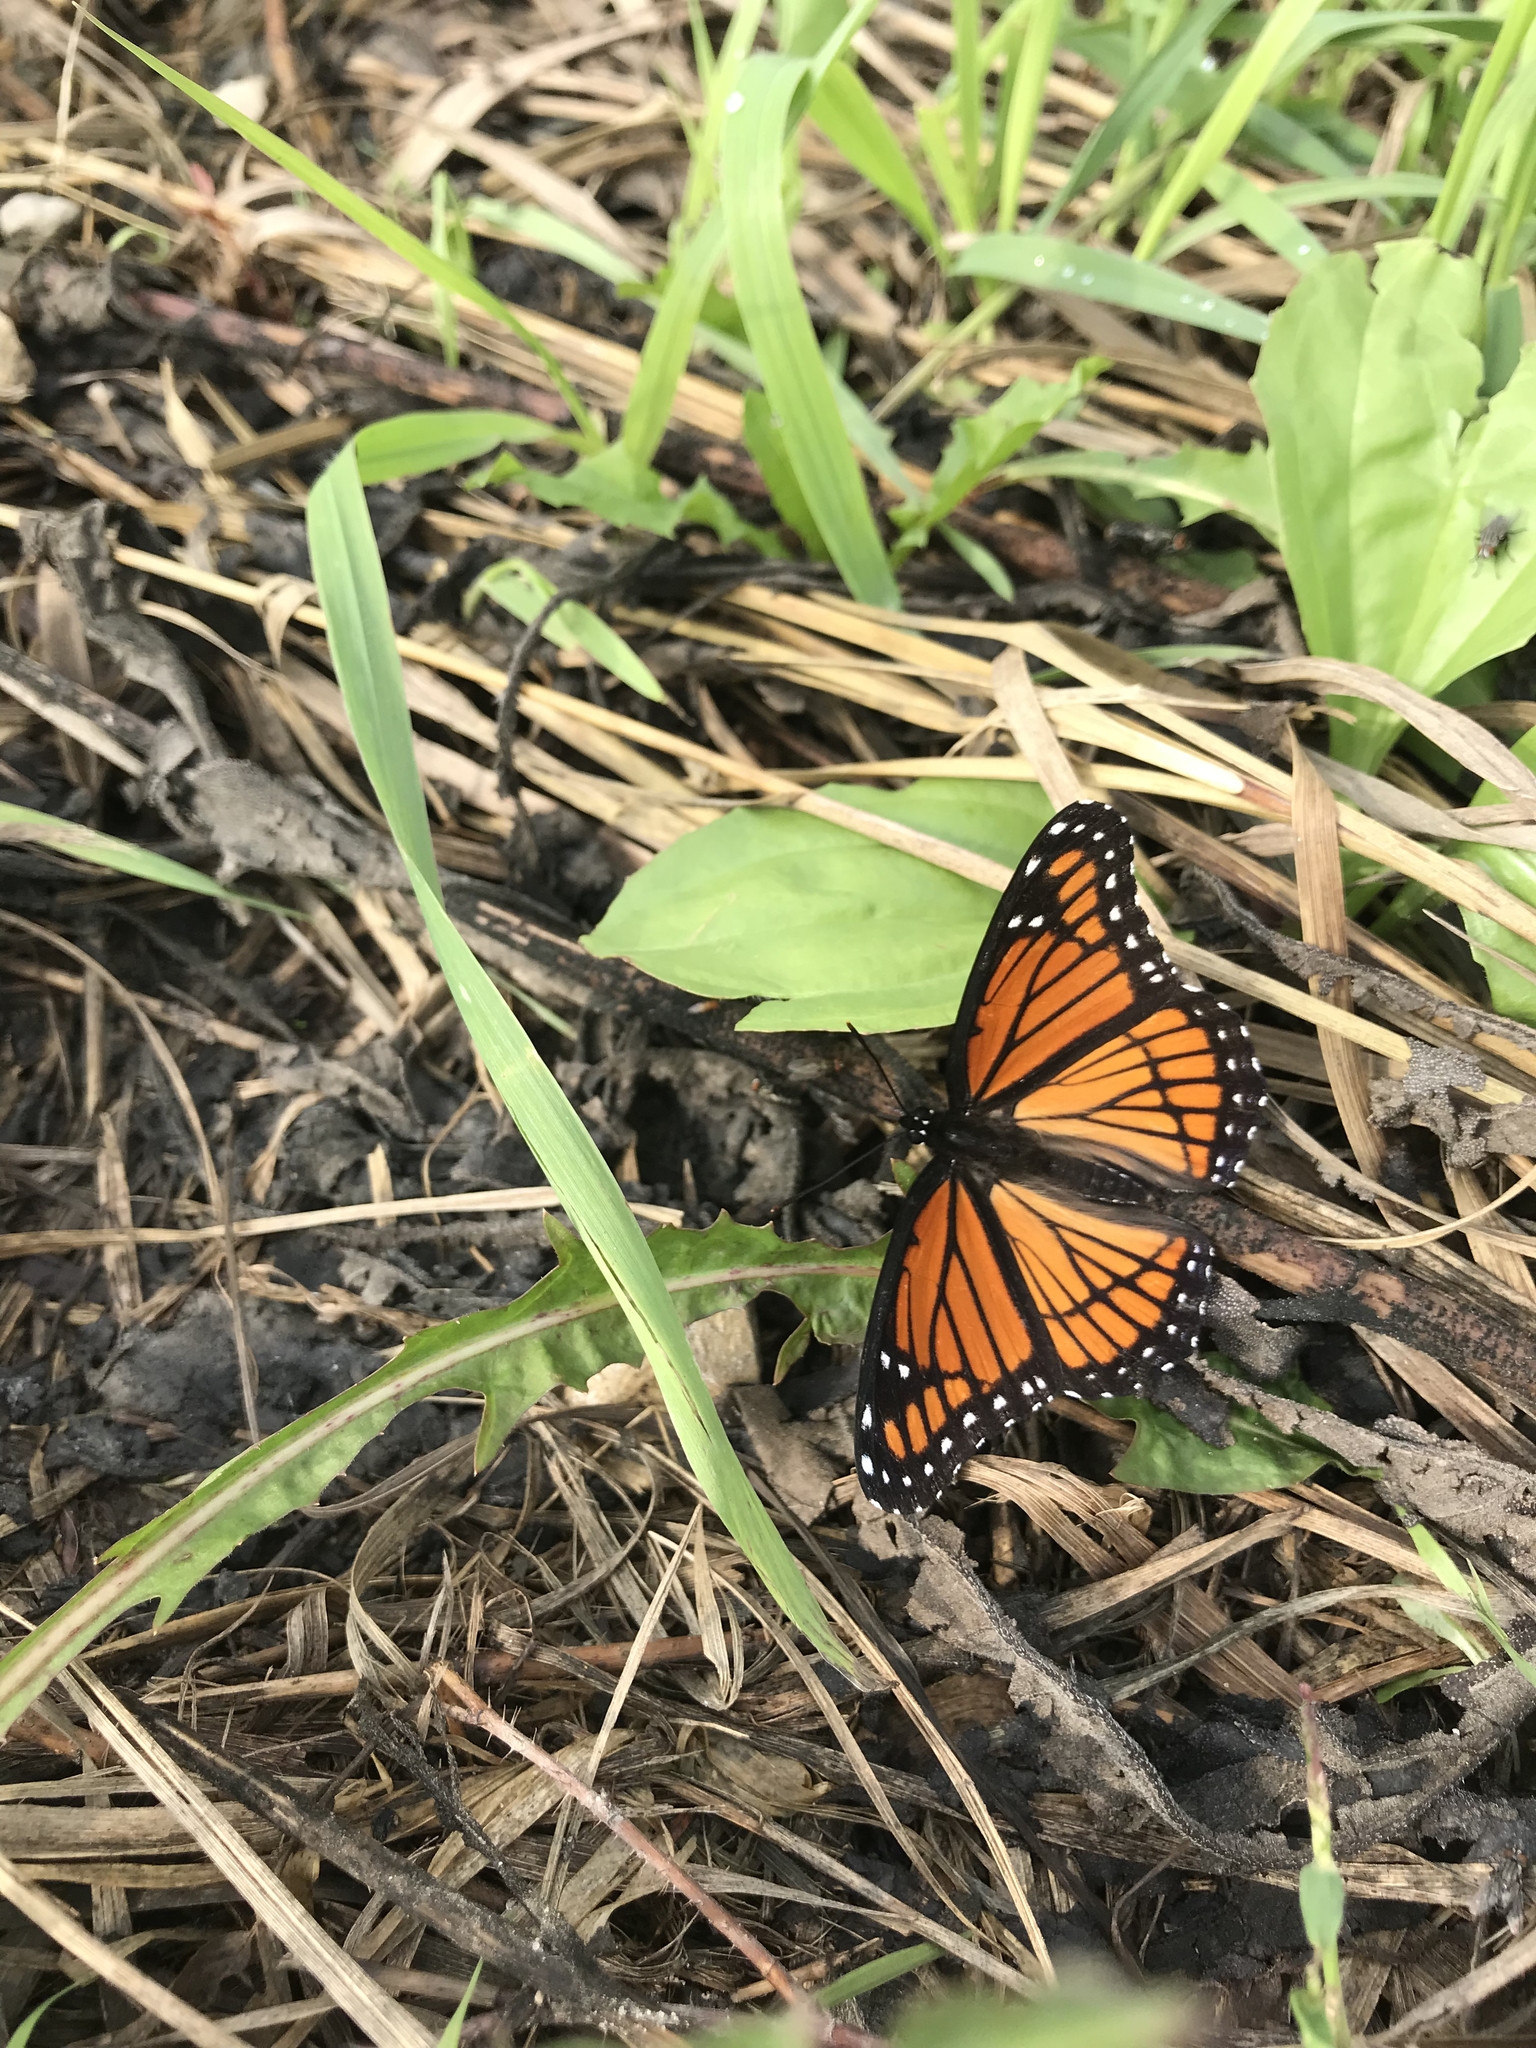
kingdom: Animalia
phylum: Arthropoda
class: Insecta
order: Lepidoptera
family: Nymphalidae
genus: Limenitis
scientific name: Limenitis archippus
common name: Viceroy
